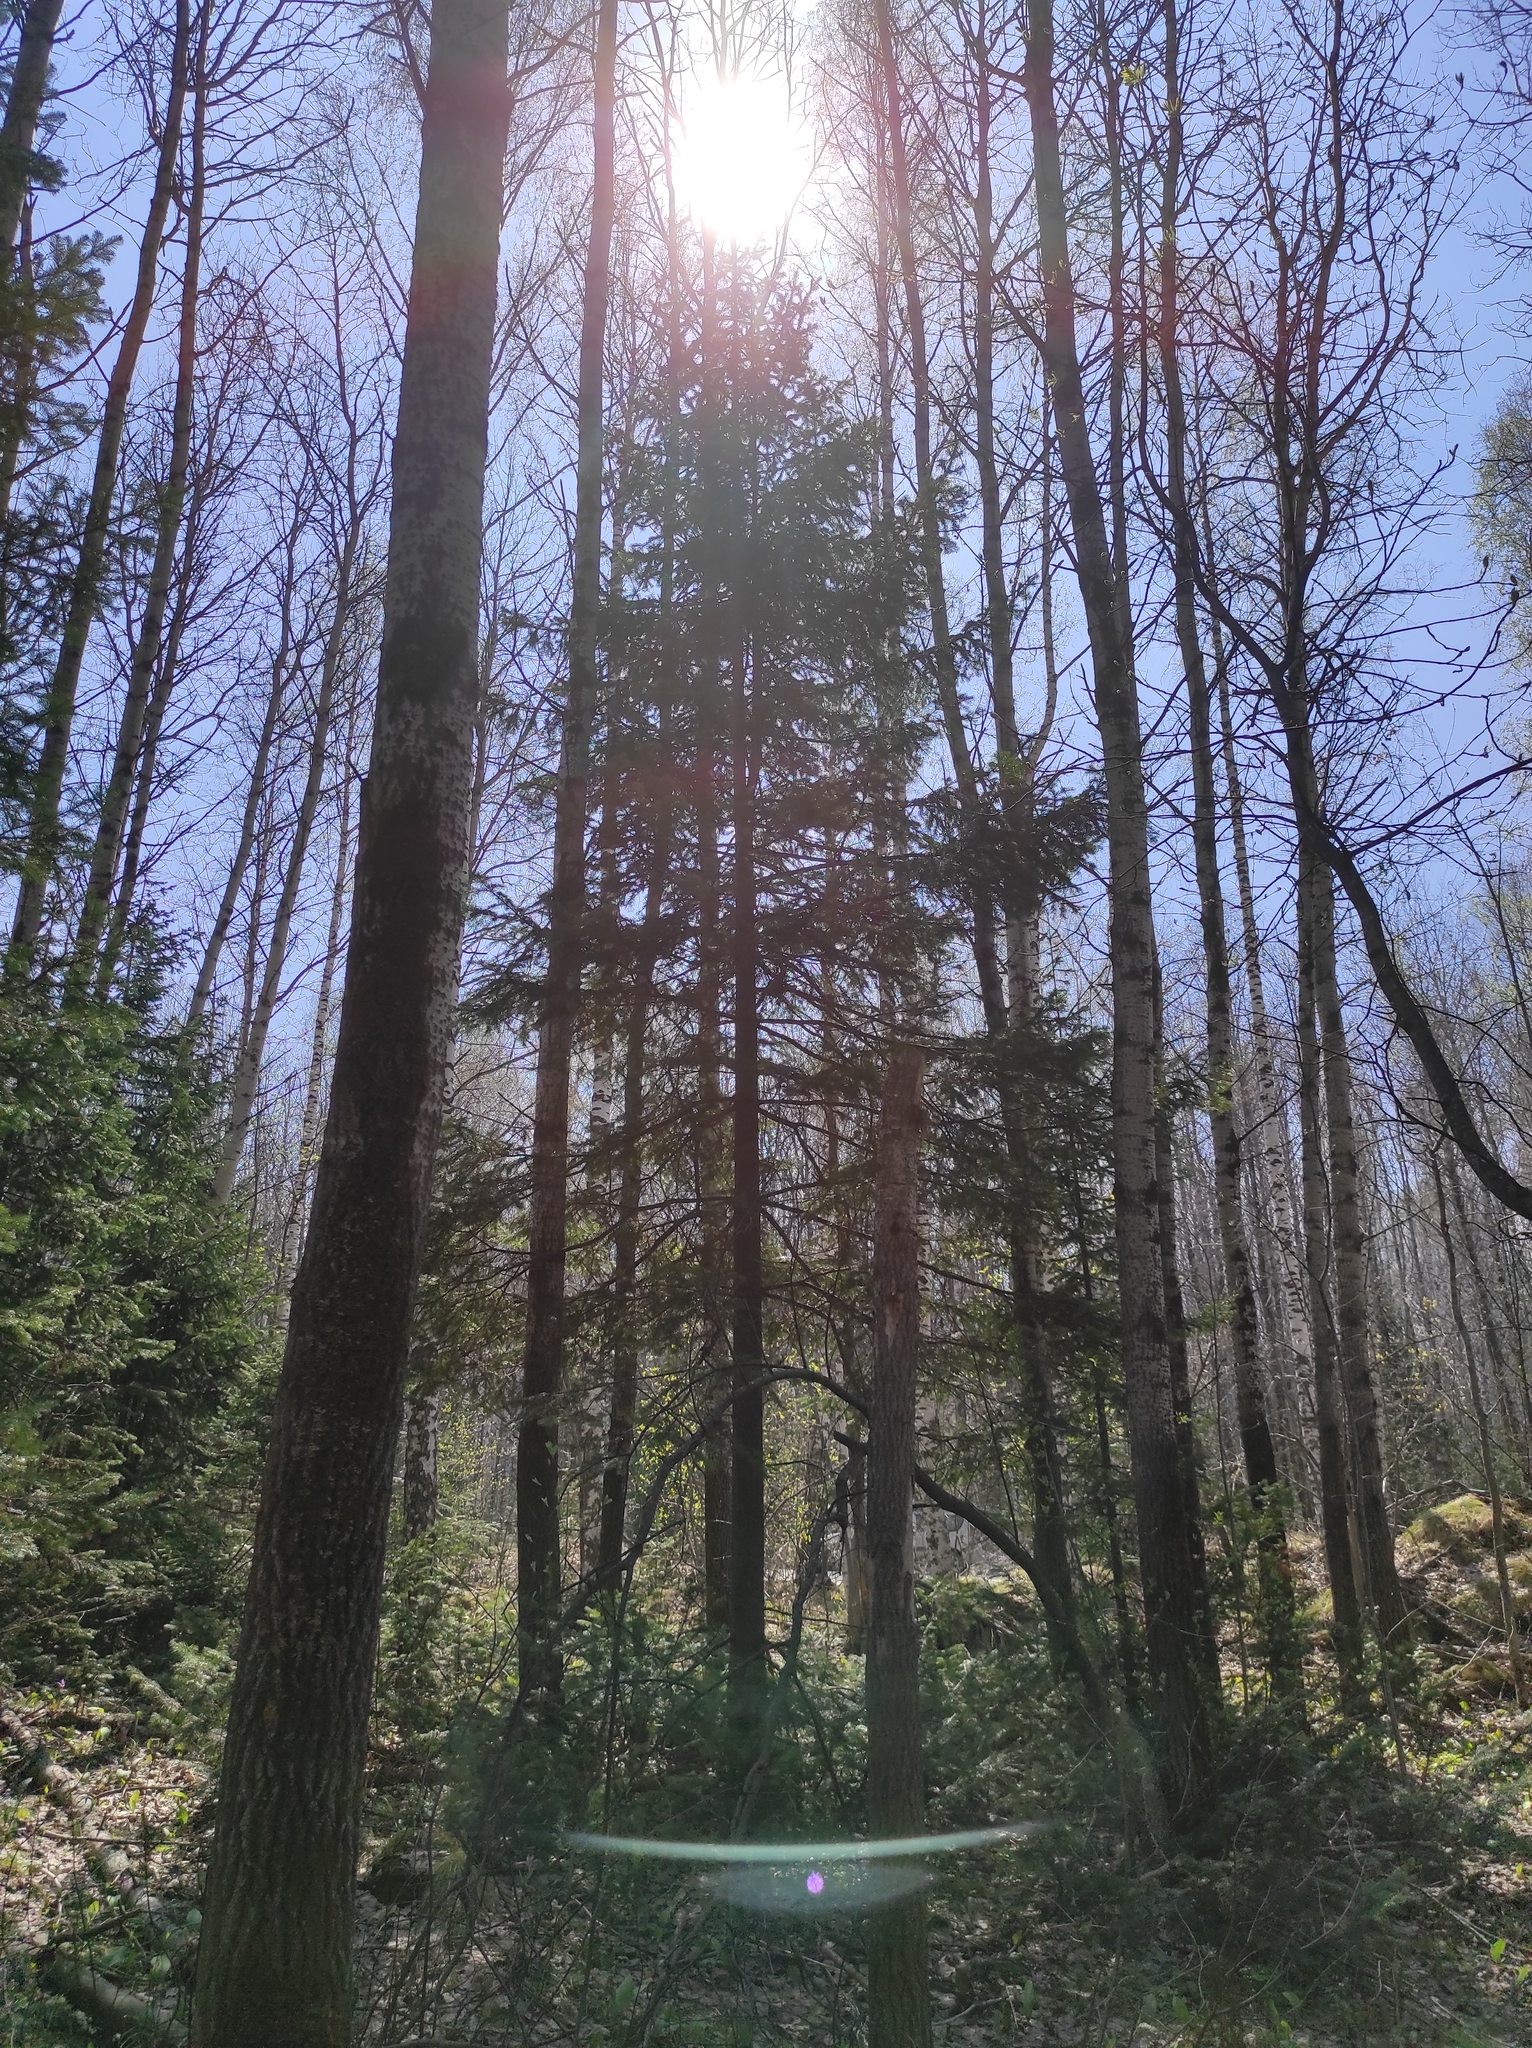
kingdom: Plantae
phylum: Tracheophyta
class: Pinopsida
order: Pinales
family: Pinaceae
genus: Abies
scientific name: Abies sibirica
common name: Siberian fir
